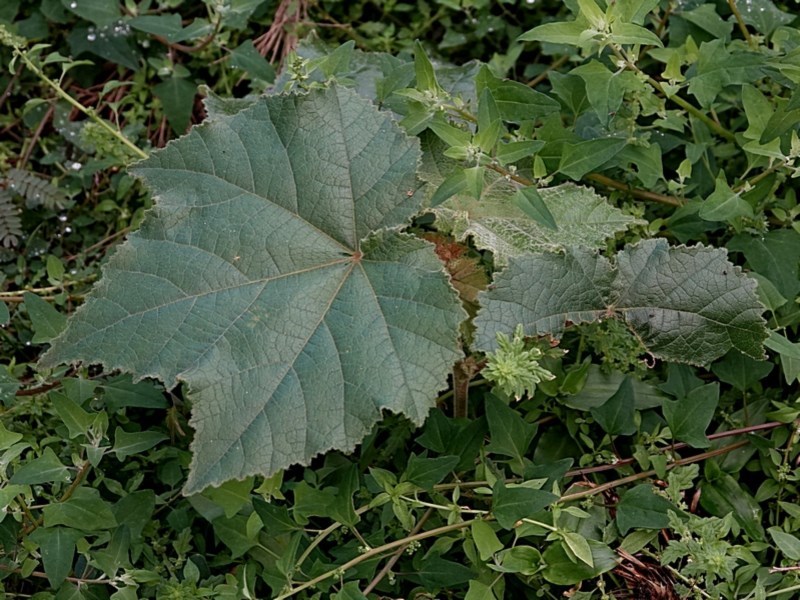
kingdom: Plantae
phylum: Tracheophyta
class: Magnoliopsida
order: Malvales
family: Malvaceae
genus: Androcalva
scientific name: Androcalva rossii
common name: Native hemp
